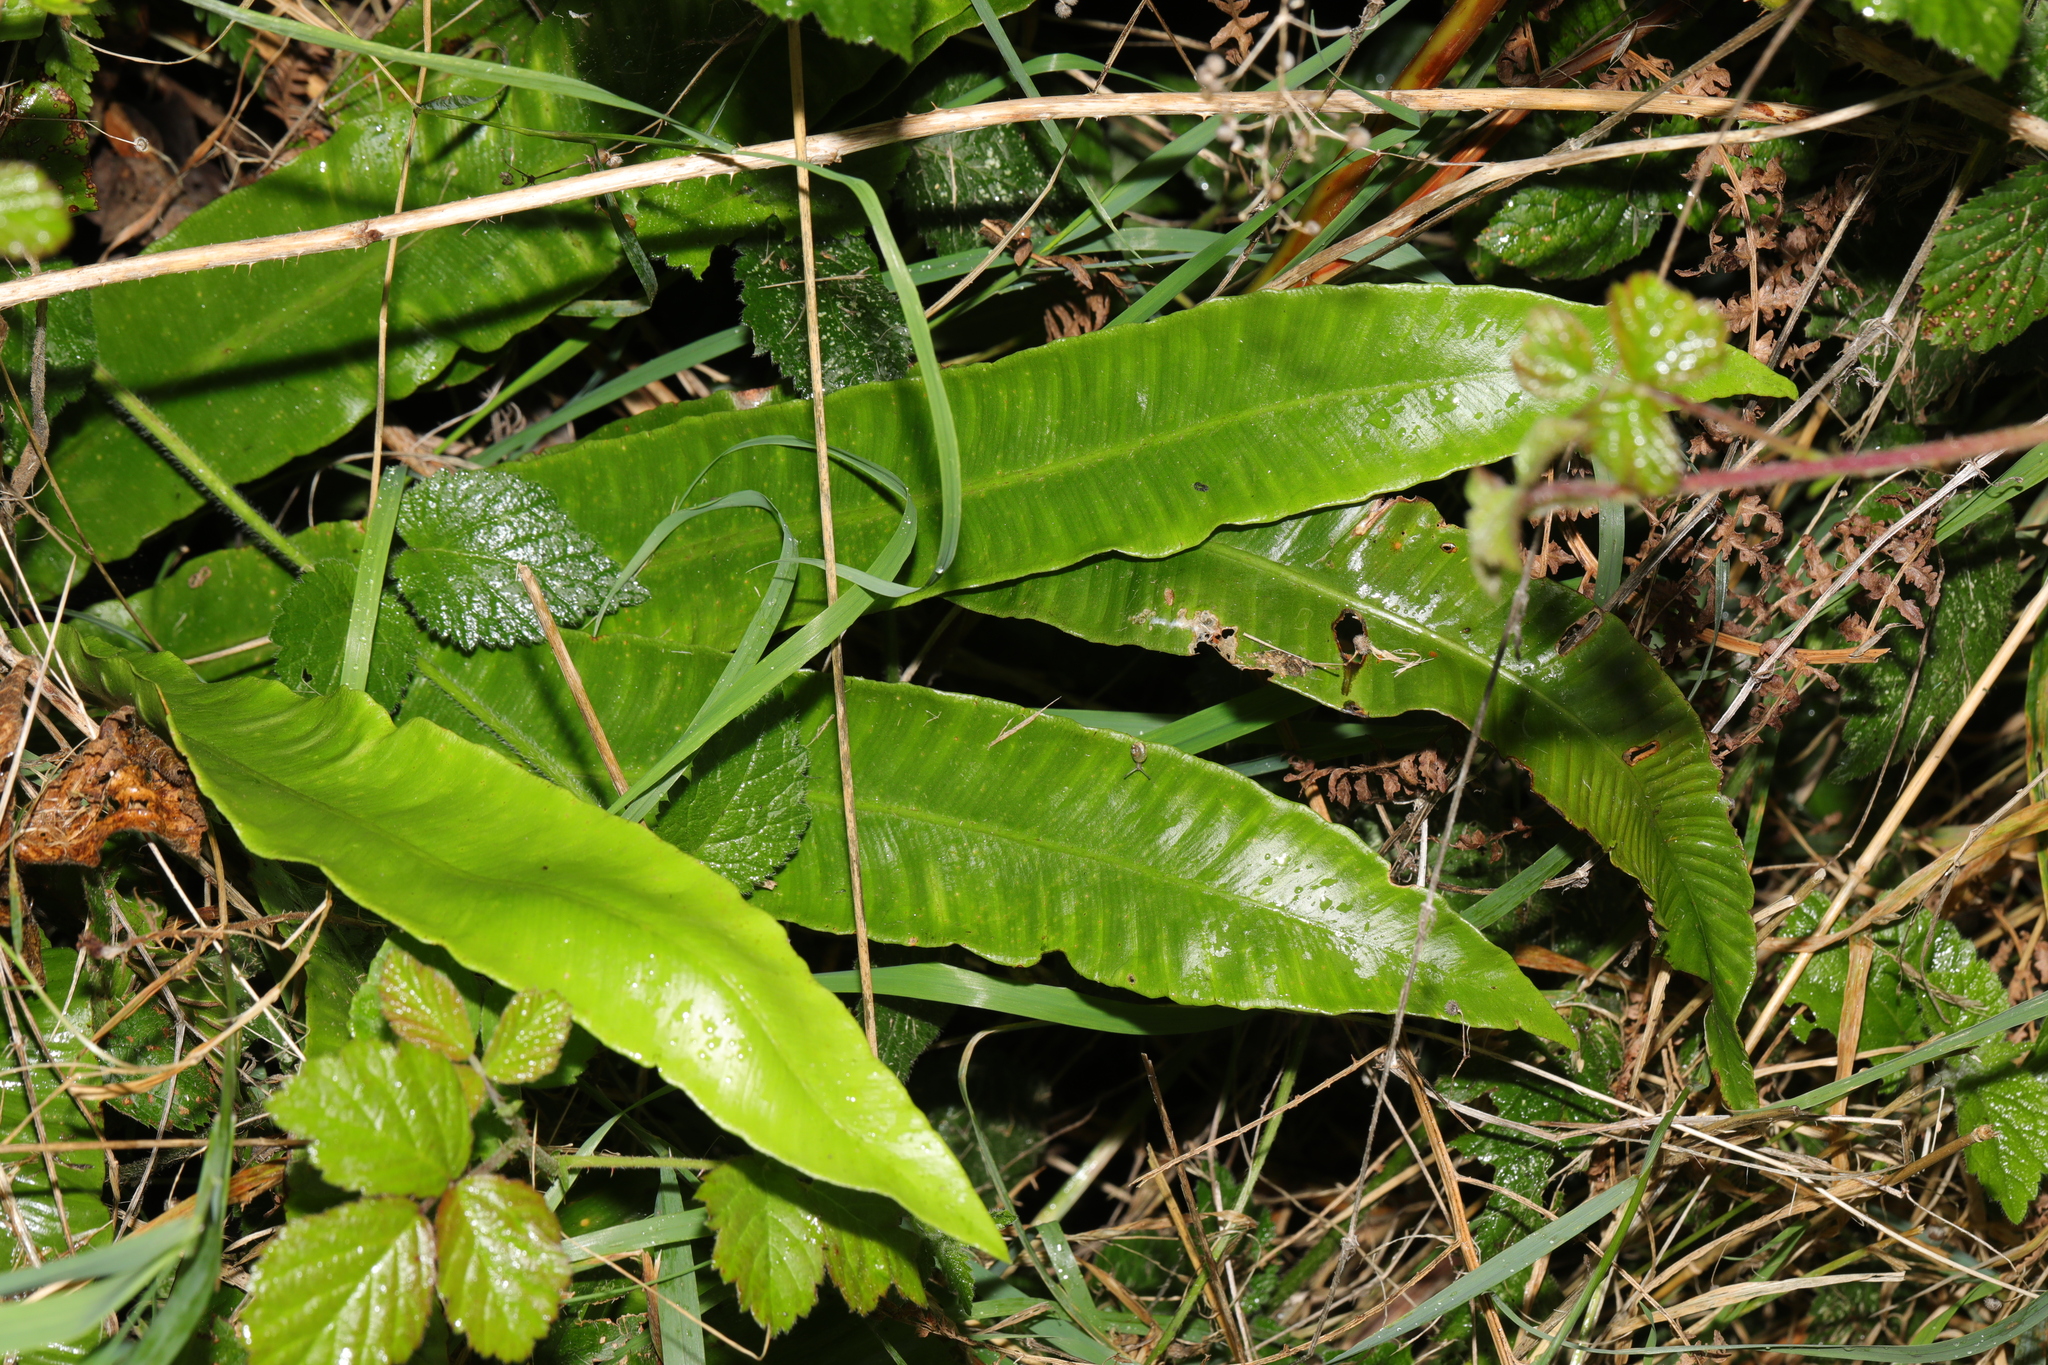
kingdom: Plantae
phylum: Tracheophyta
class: Polypodiopsida
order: Polypodiales
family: Aspleniaceae
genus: Asplenium
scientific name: Asplenium scolopendrium
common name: Hart's-tongue fern
